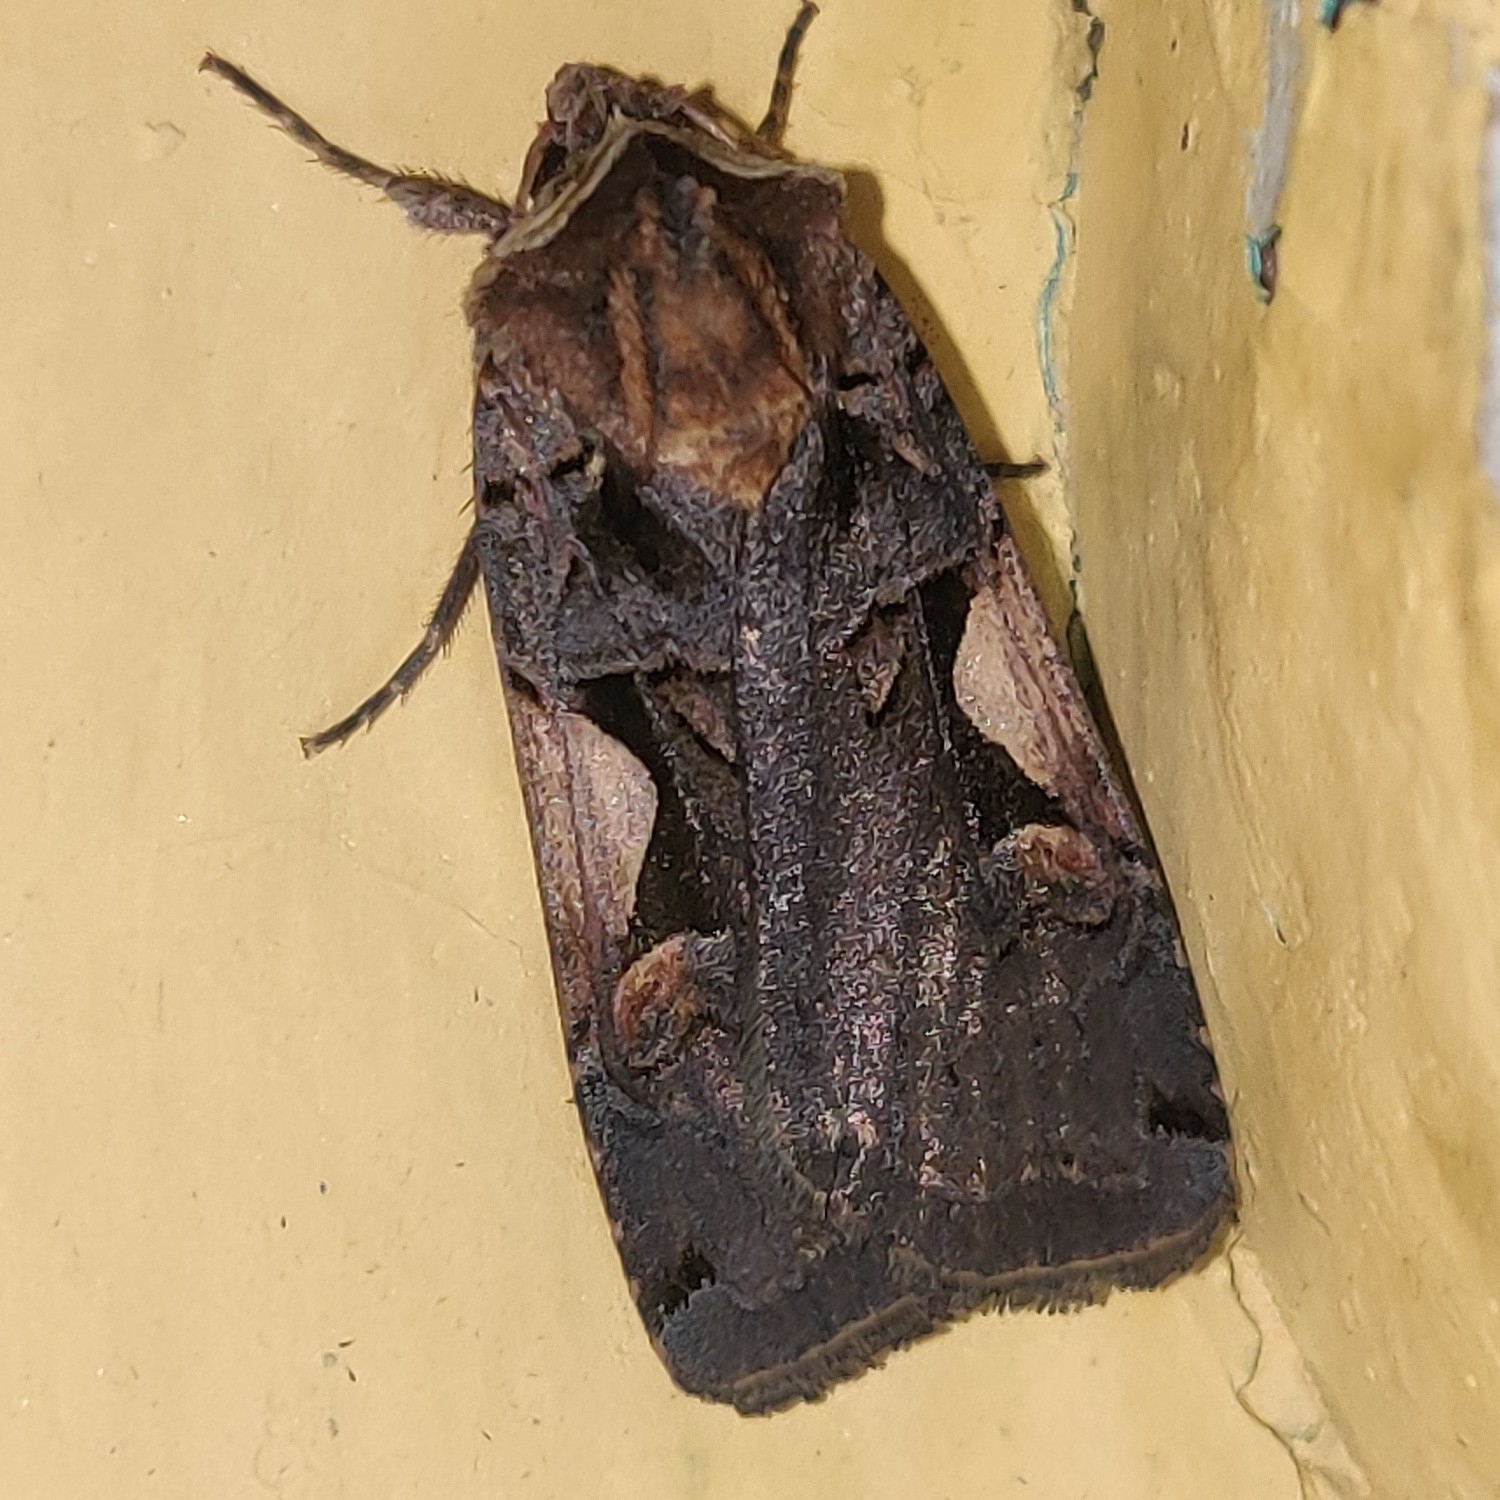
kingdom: Animalia
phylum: Arthropoda
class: Insecta
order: Lepidoptera
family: Noctuidae
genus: Xestia
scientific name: Xestia c-nigrum
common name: Setaceous hebrew character
